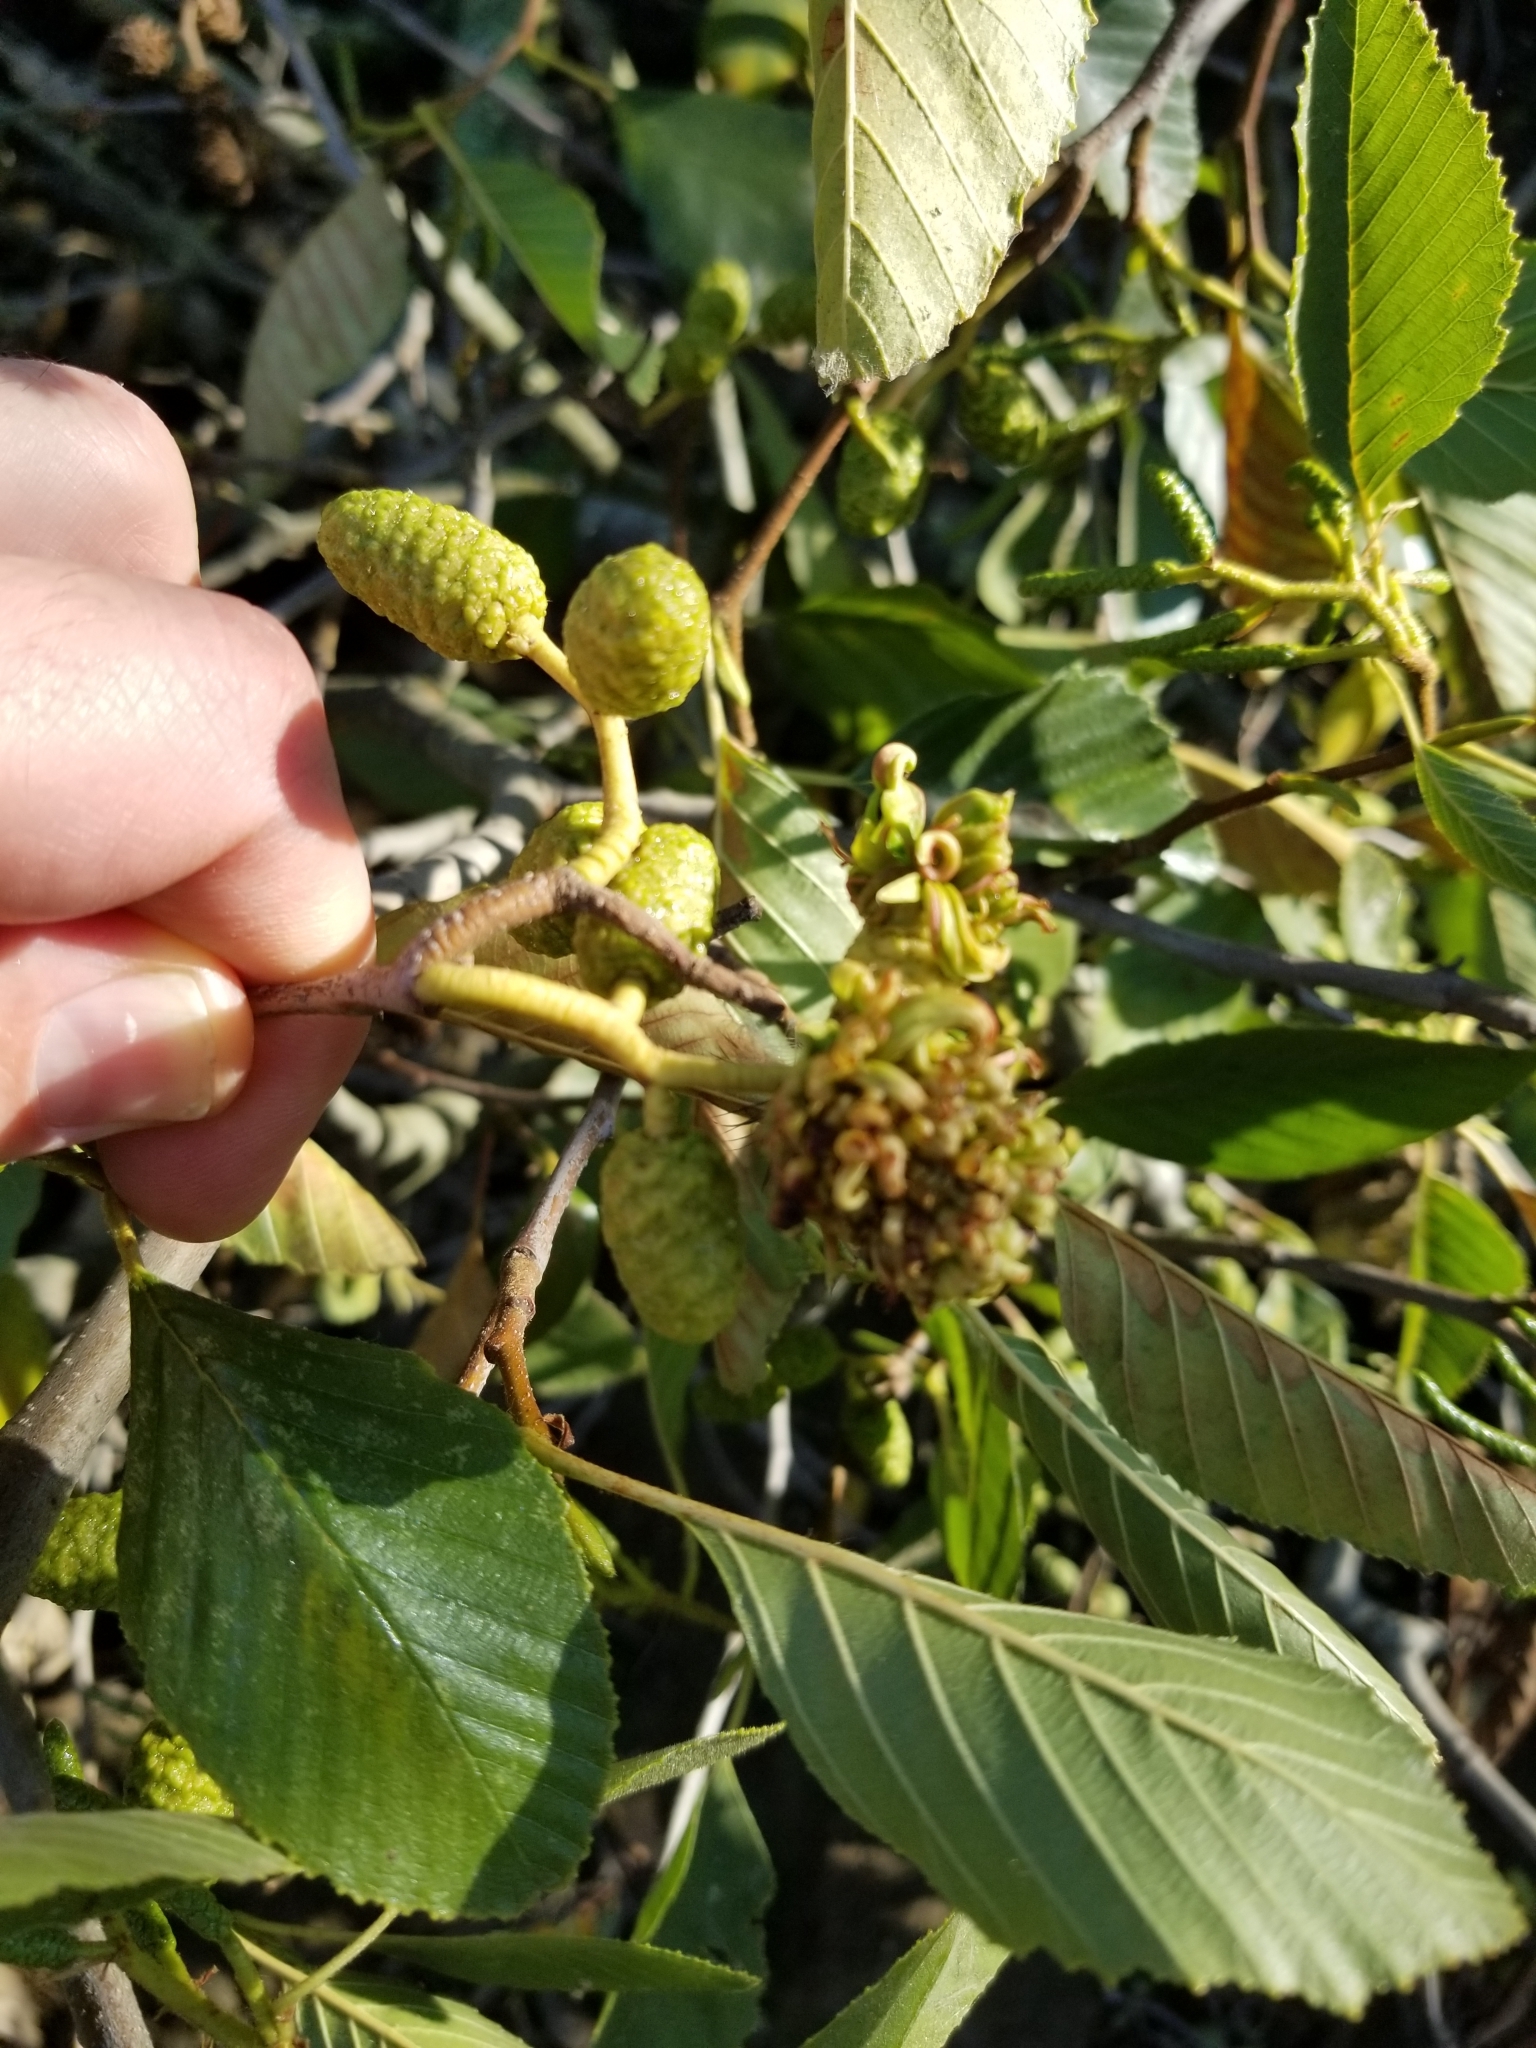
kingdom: Fungi
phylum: Ascomycota
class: Taphrinomycetes
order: Taphrinales
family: Taphrinaceae
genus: Taphrina
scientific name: Taphrina occidentalis
